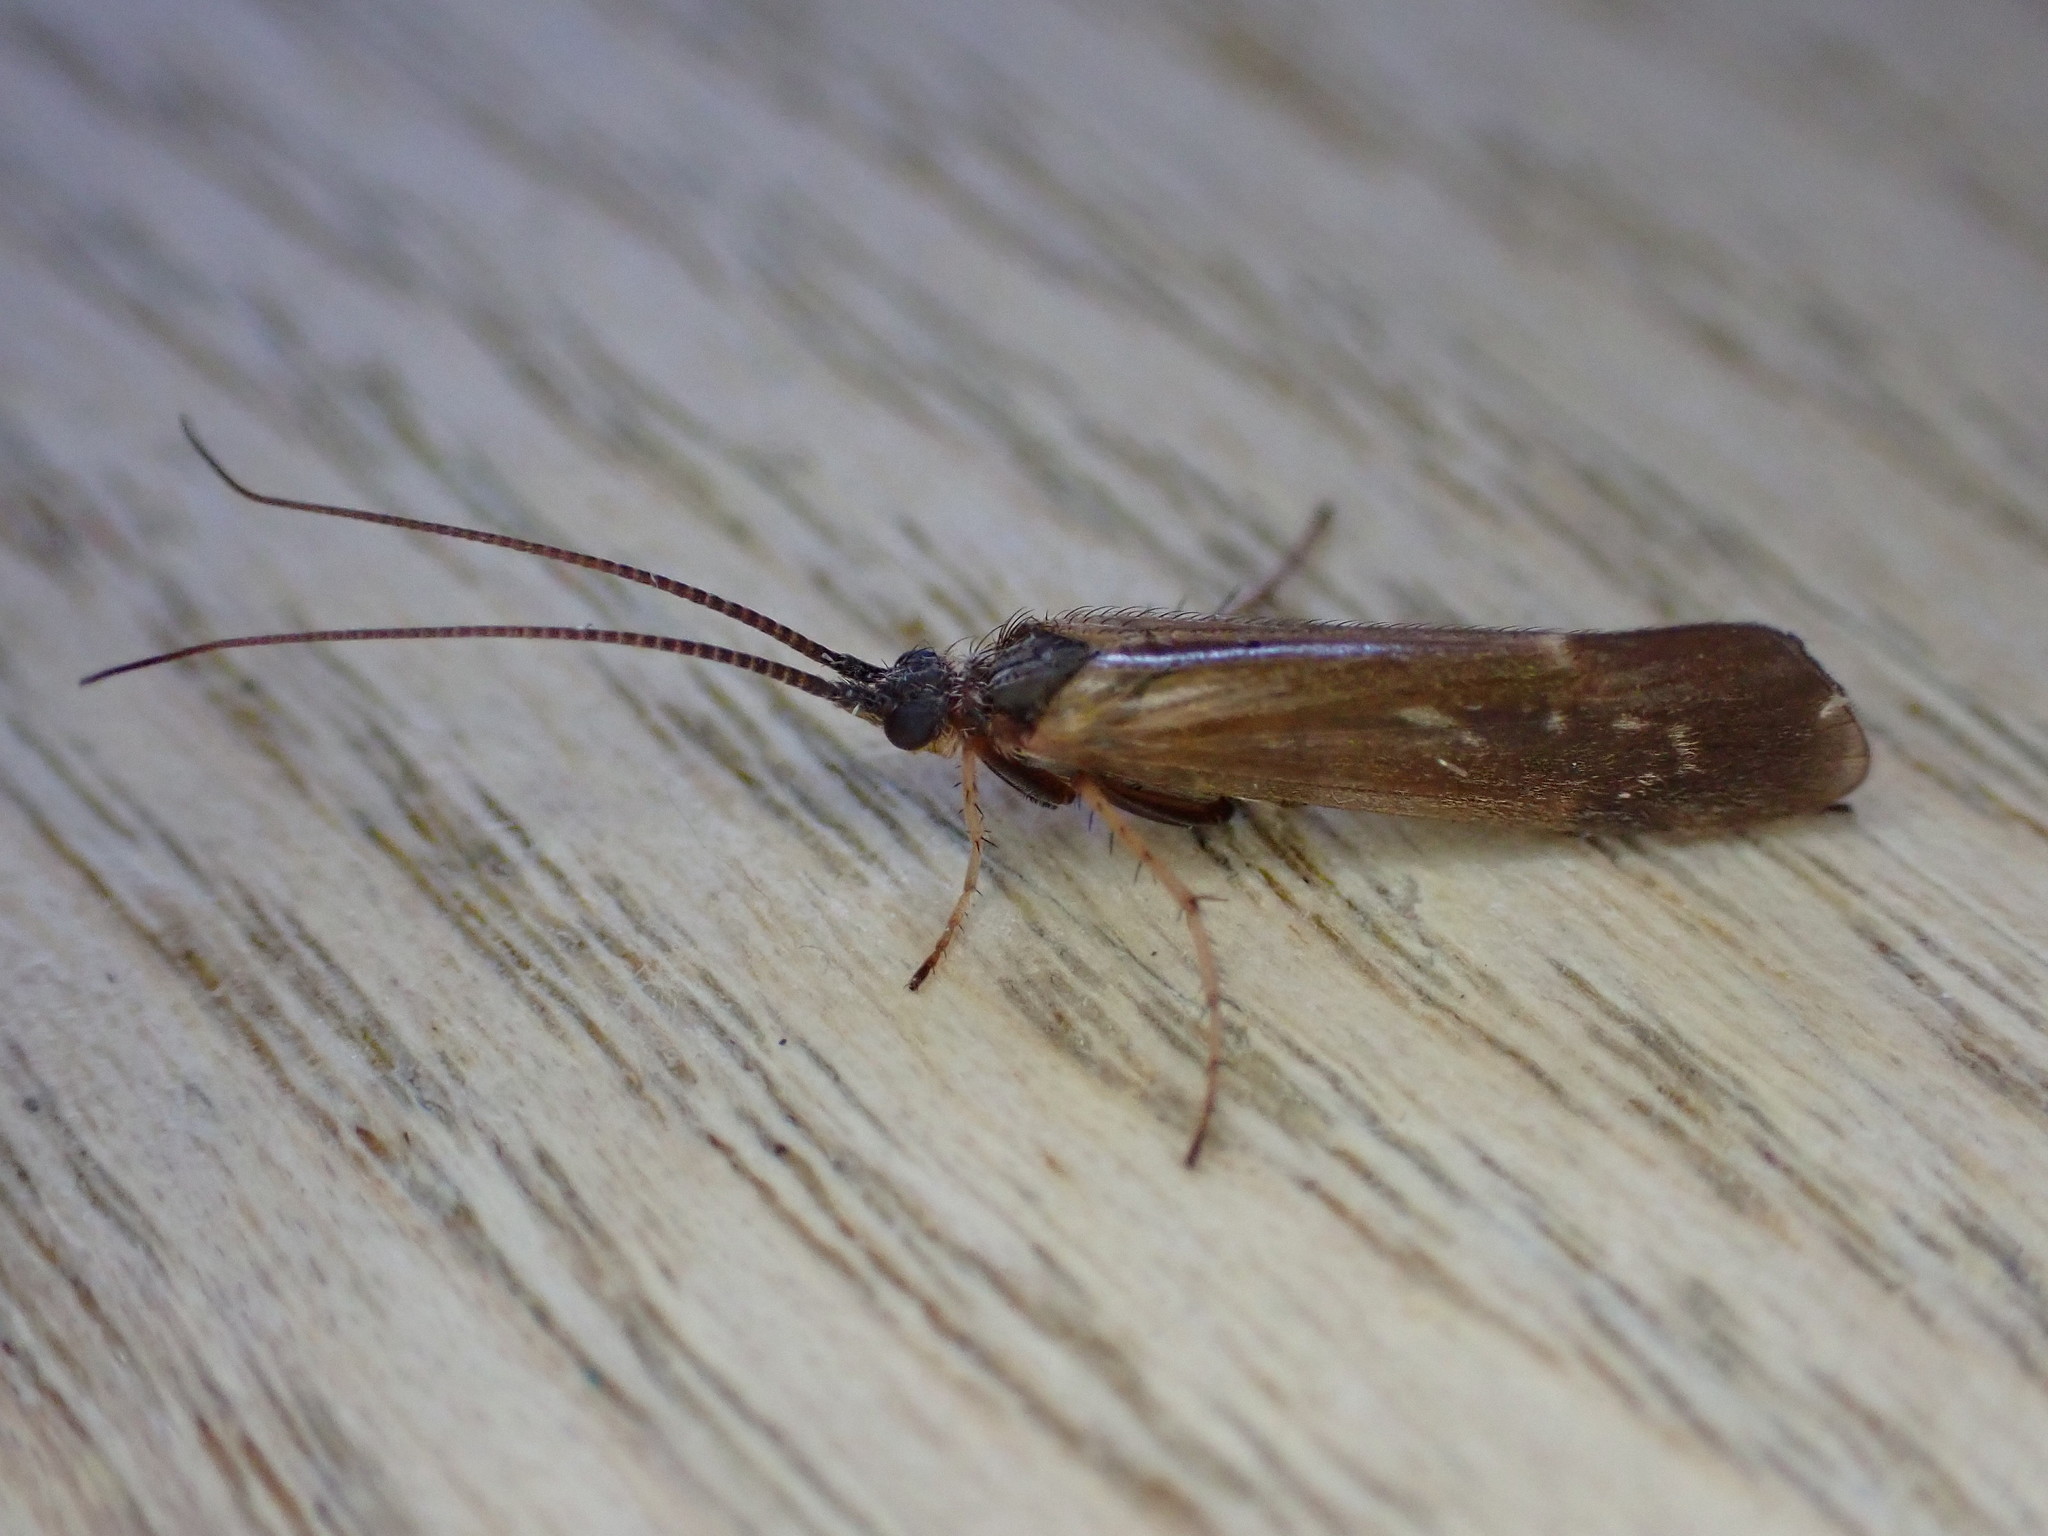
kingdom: Animalia
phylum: Arthropoda
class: Insecta
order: Trichoptera
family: Limnephilidae
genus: Limnephilus
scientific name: Limnephilus auricula
